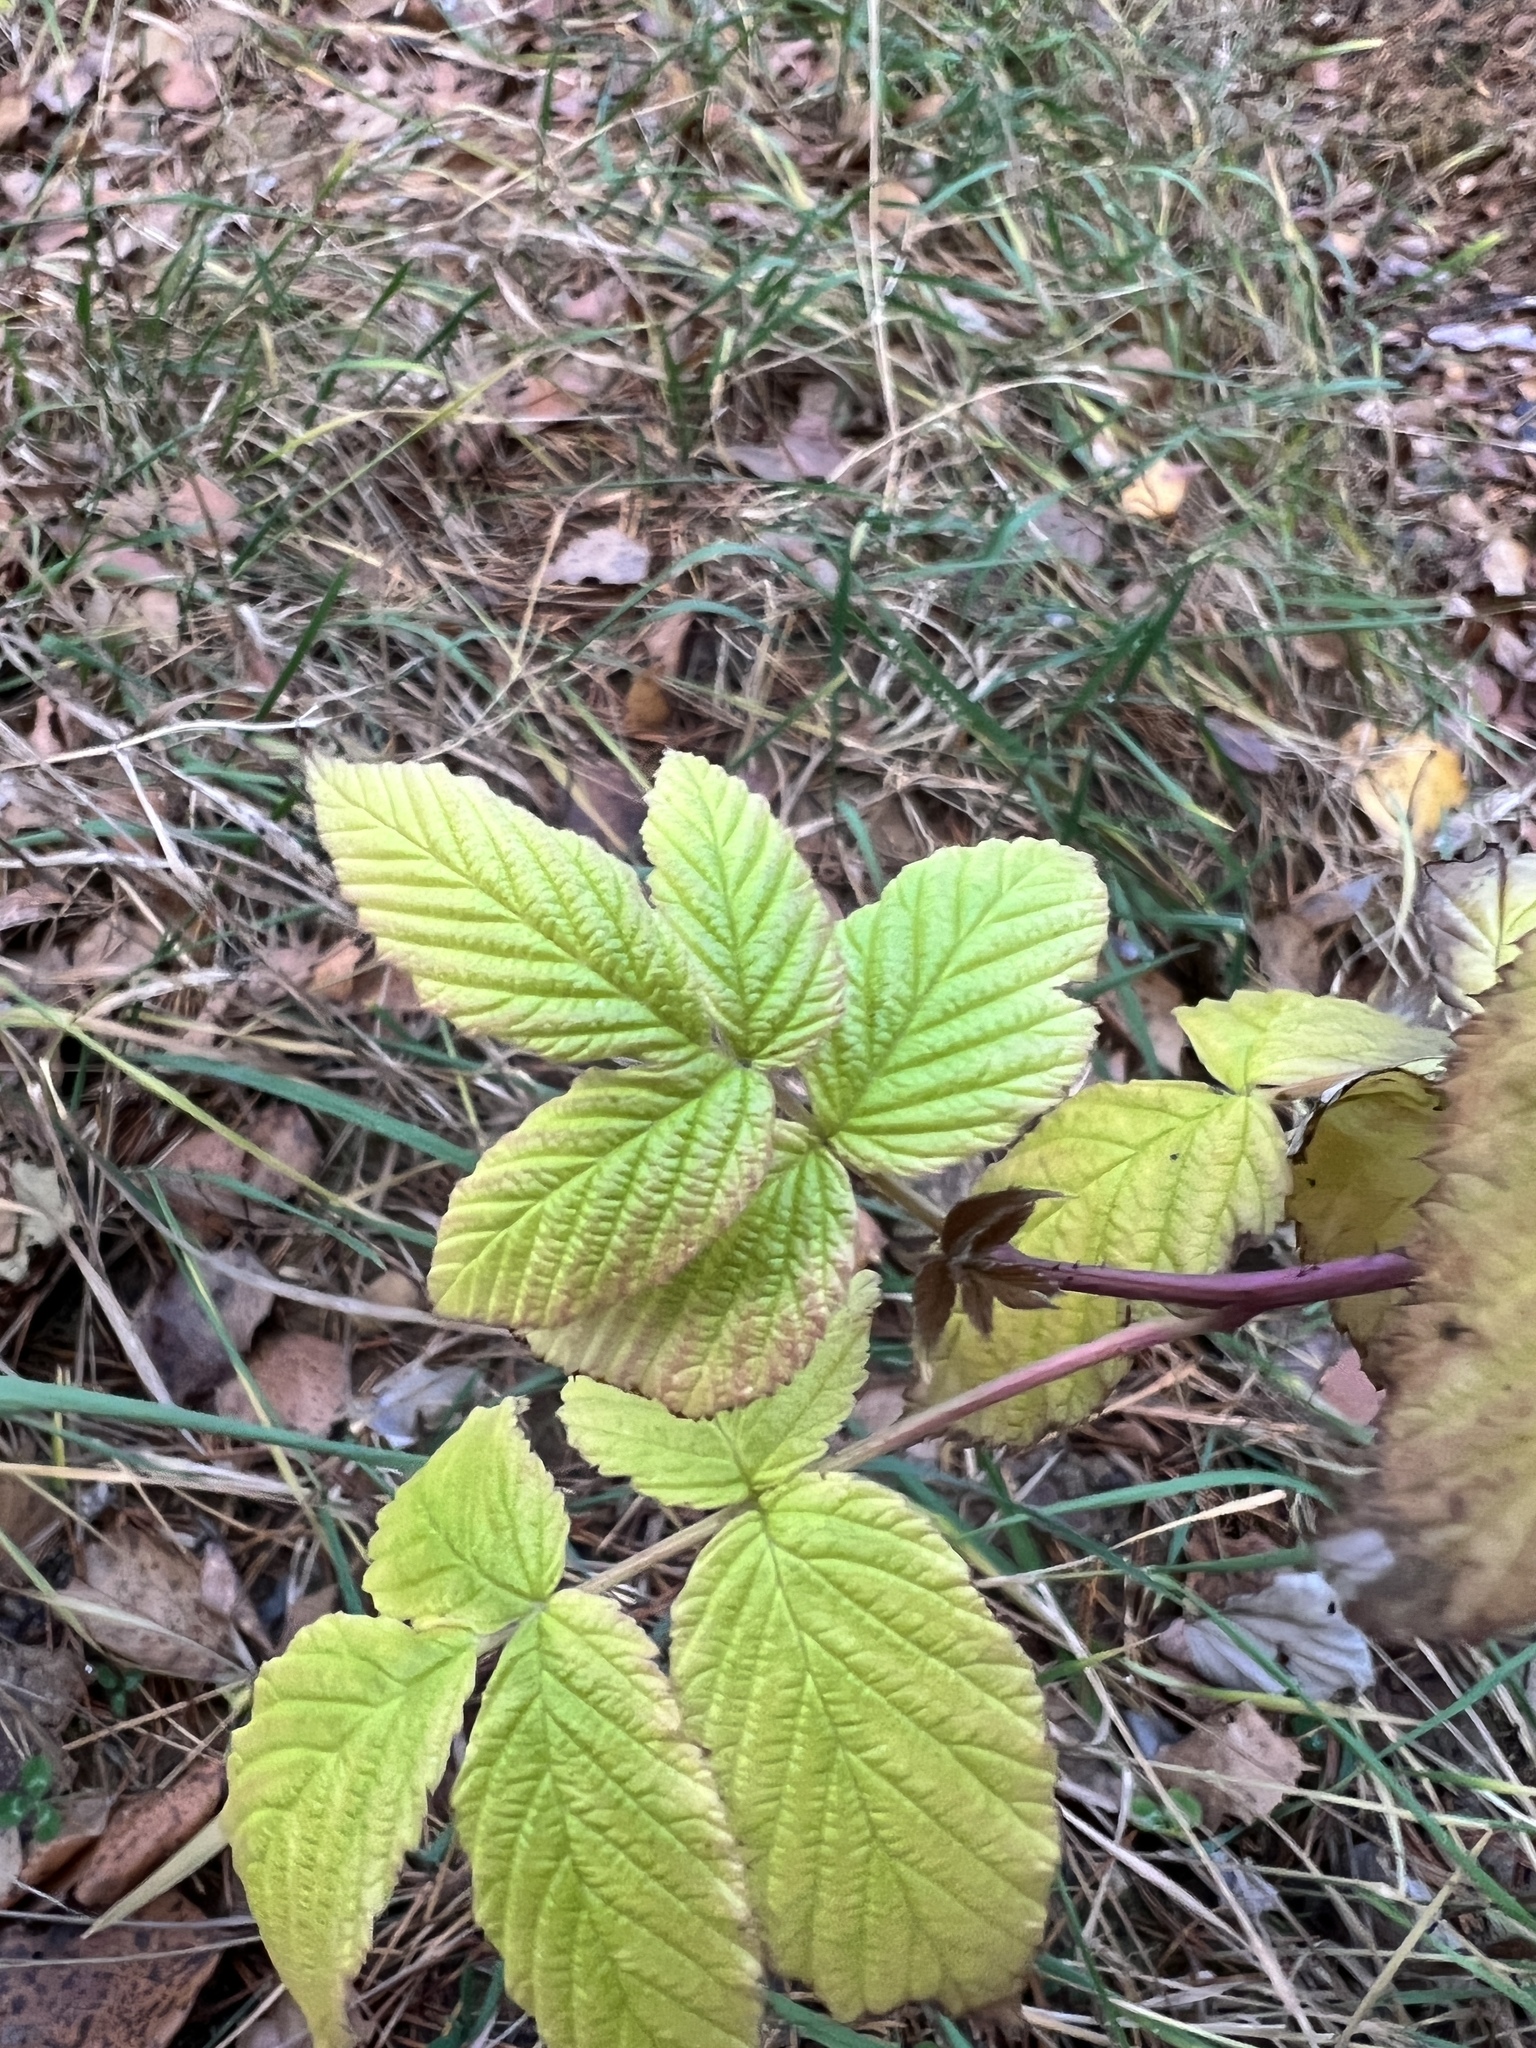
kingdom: Plantae
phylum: Tracheophyta
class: Magnoliopsida
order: Rosales
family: Rosaceae
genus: Rubus
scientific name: Rubus idaeus
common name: Raspberry
